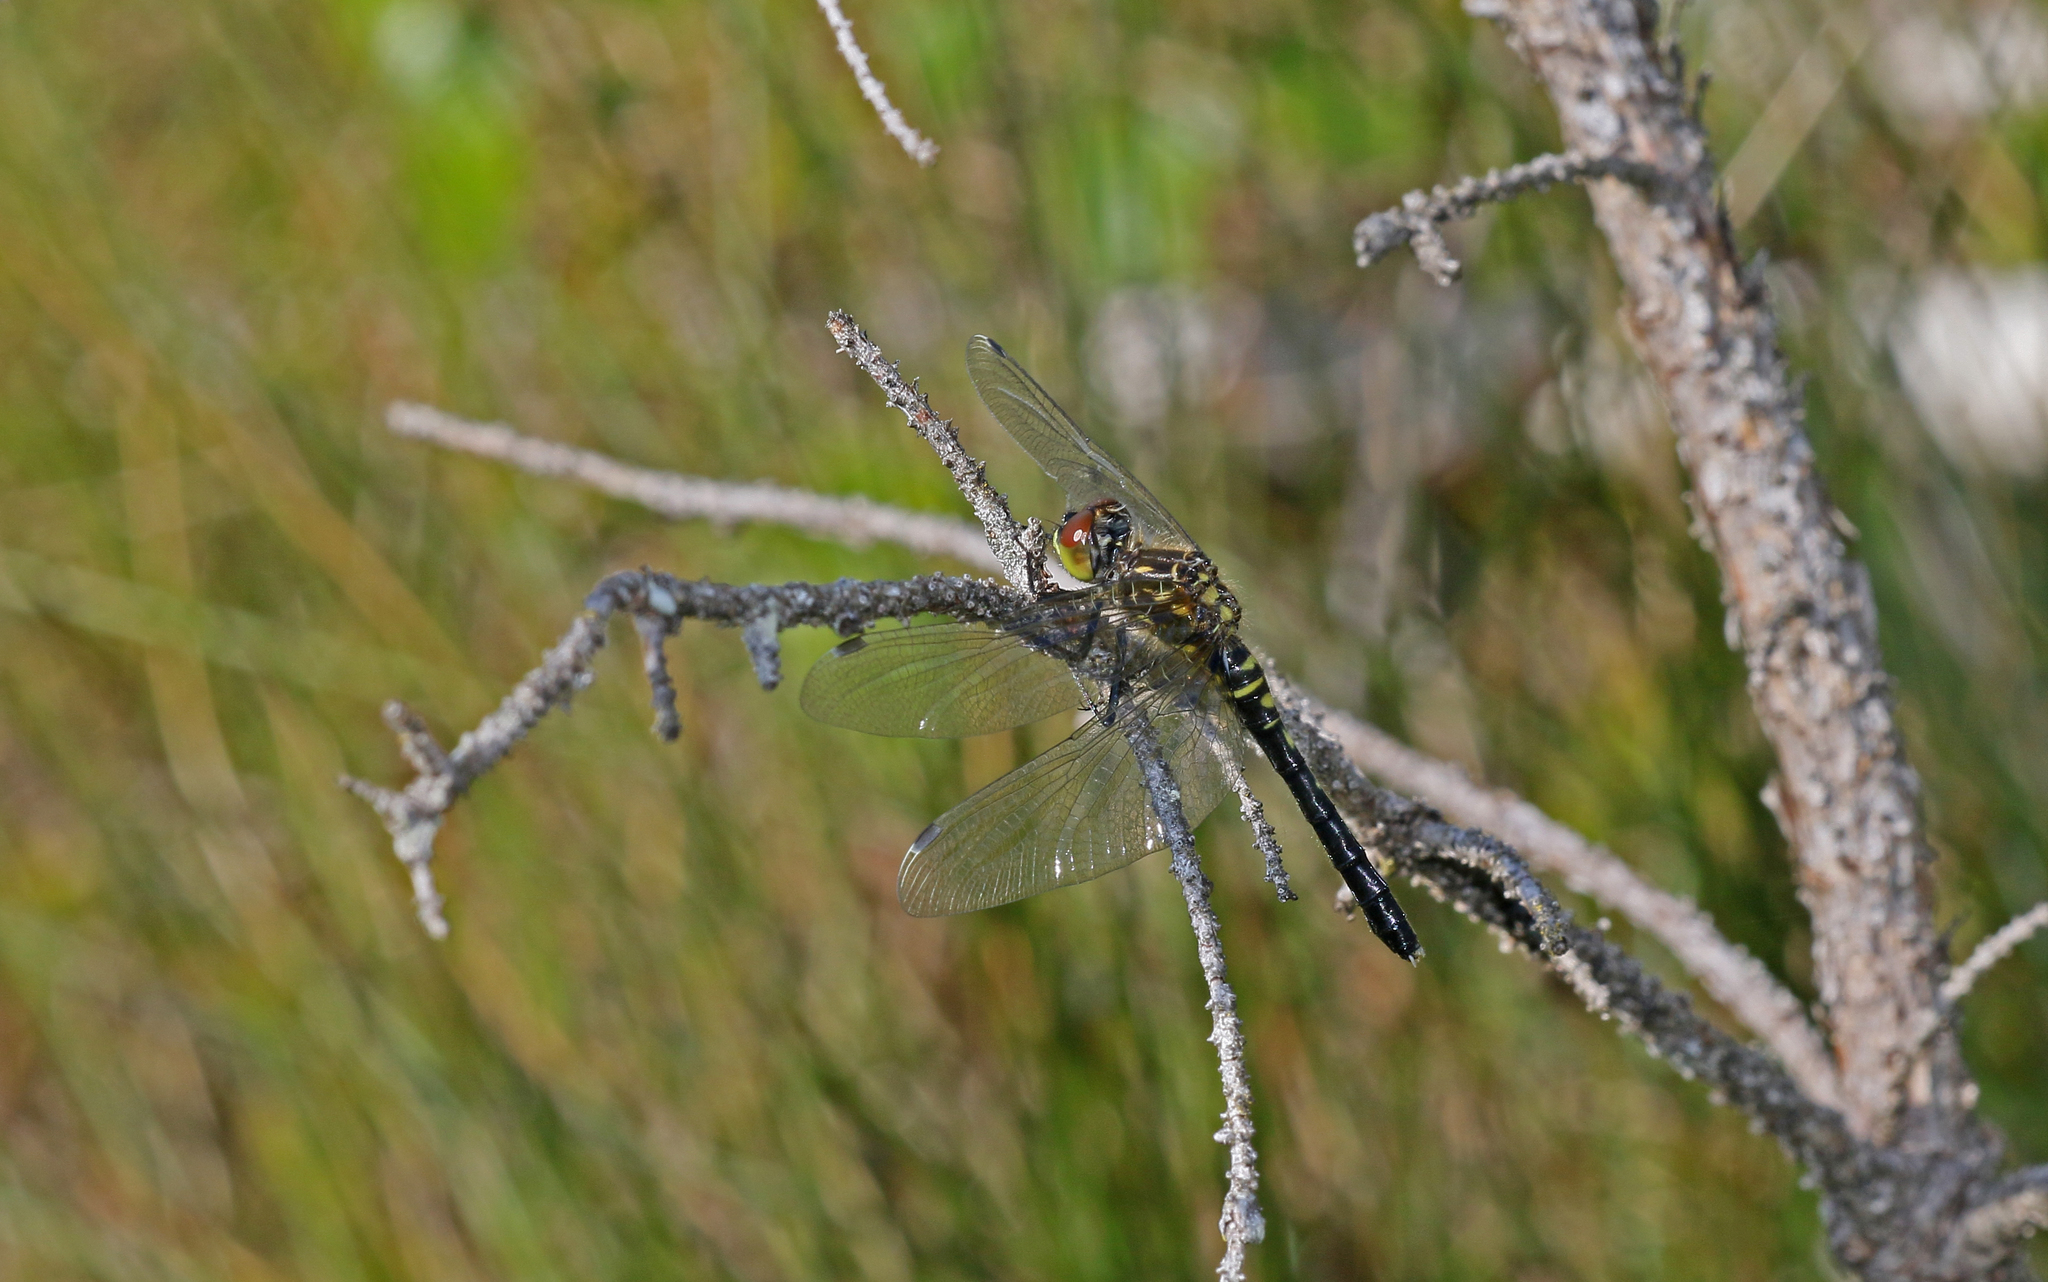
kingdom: Animalia
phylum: Arthropoda
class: Insecta
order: Odonata
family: Libellulidae
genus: Leucorrhinia
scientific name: Leucorrhinia albifrons
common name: Dark whiteface
